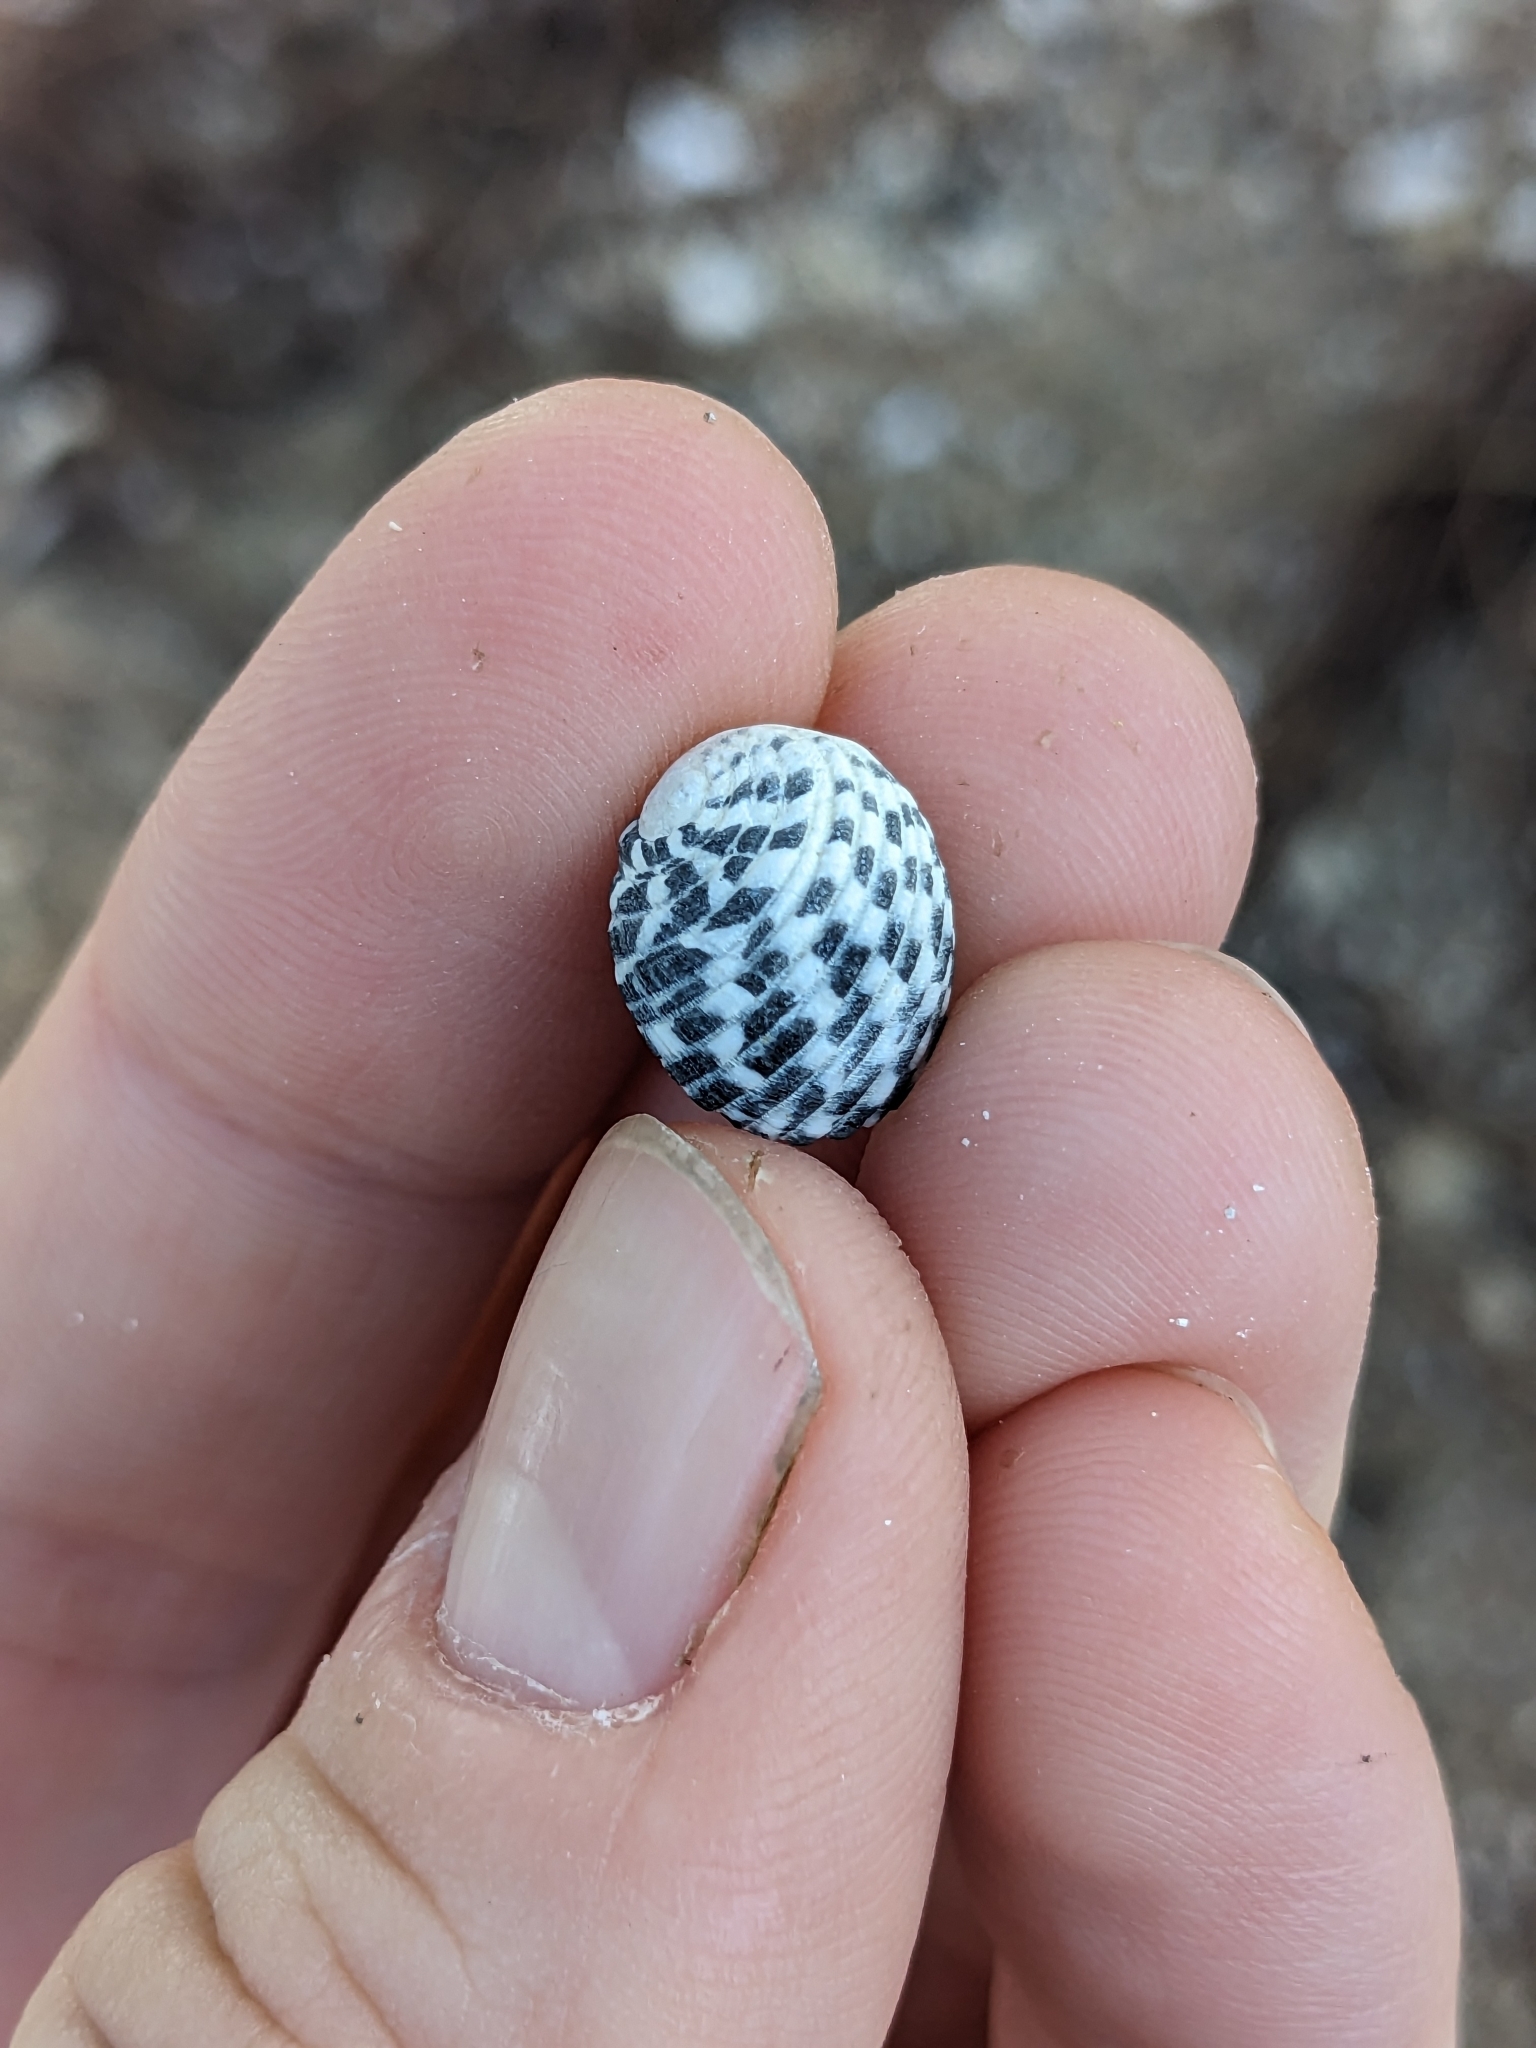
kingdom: Animalia
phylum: Mollusca
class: Gastropoda
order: Cycloneritida
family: Neritidae
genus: Nerita
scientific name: Nerita tessellata
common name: Checkered nerite
